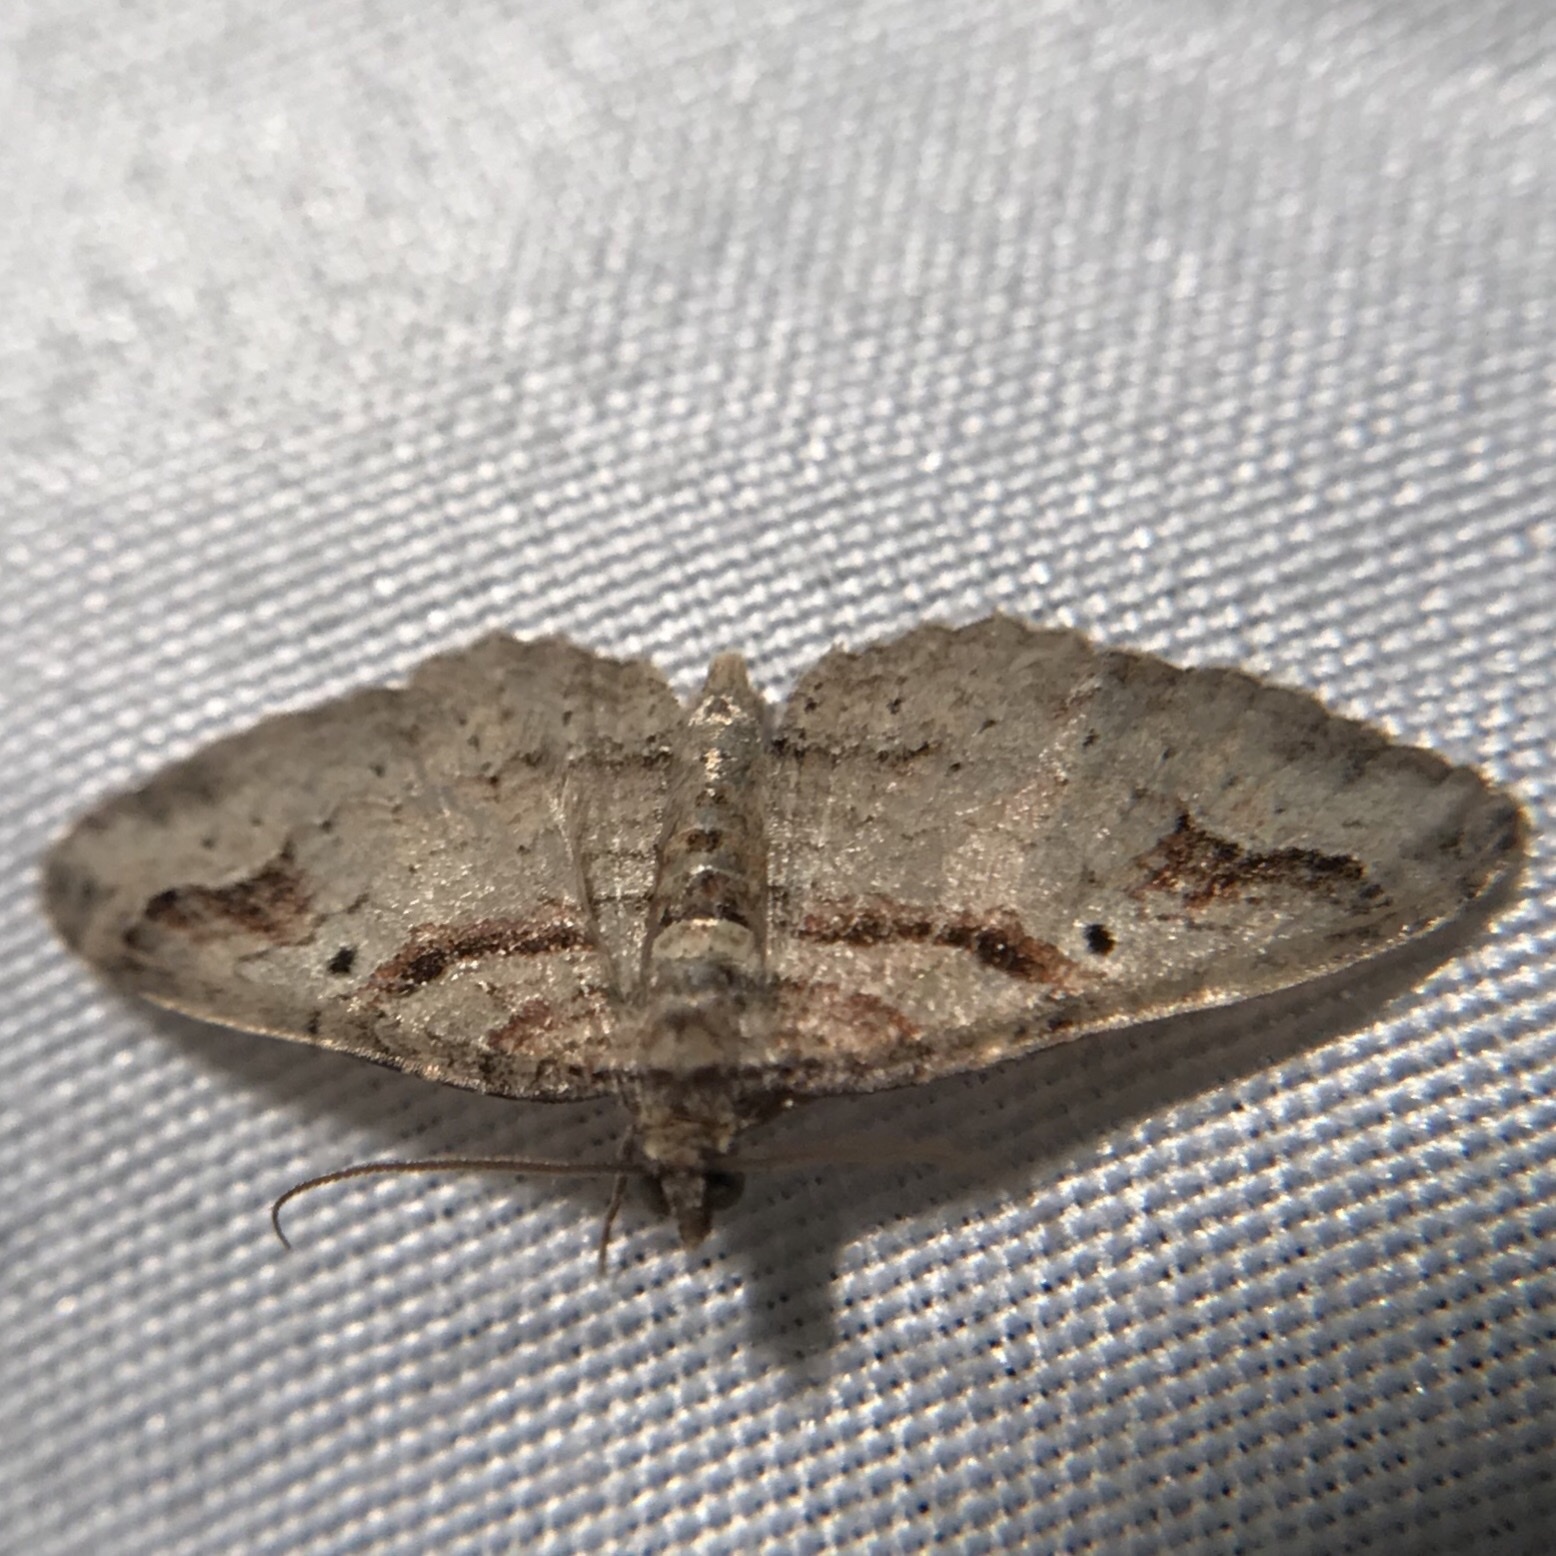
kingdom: Animalia
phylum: Arthropoda
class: Insecta
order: Lepidoptera
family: Geometridae
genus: Costaconvexa
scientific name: Costaconvexa centrostrigaria
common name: Bent-line carpet
